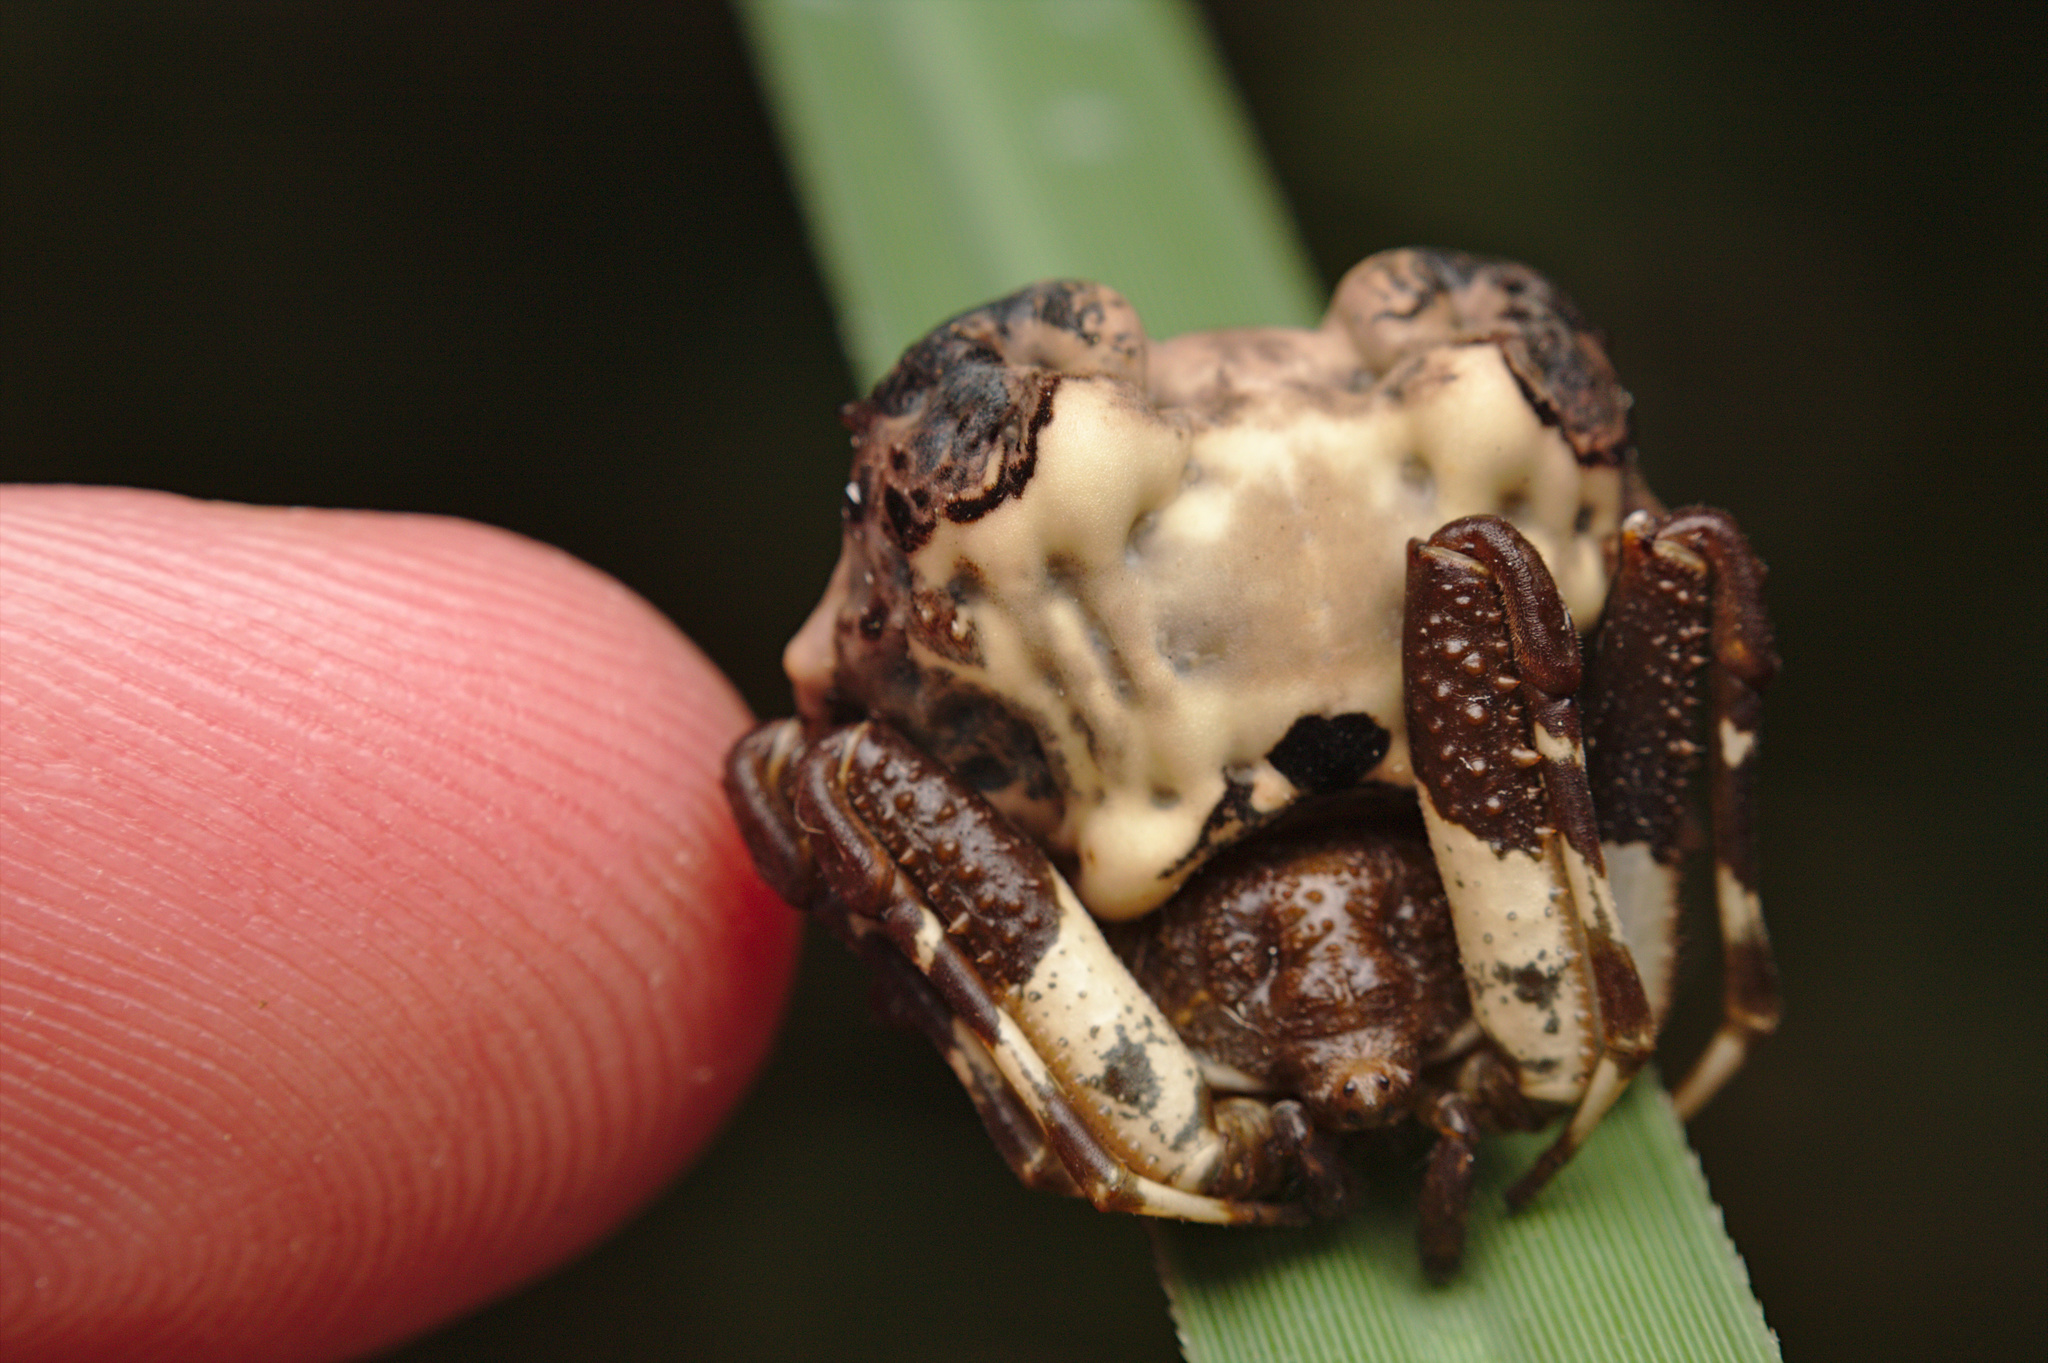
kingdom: Animalia
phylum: Arthropoda
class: Arachnida
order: Araneae
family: Araneidae
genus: Celaenia
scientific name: Celaenia excavata
